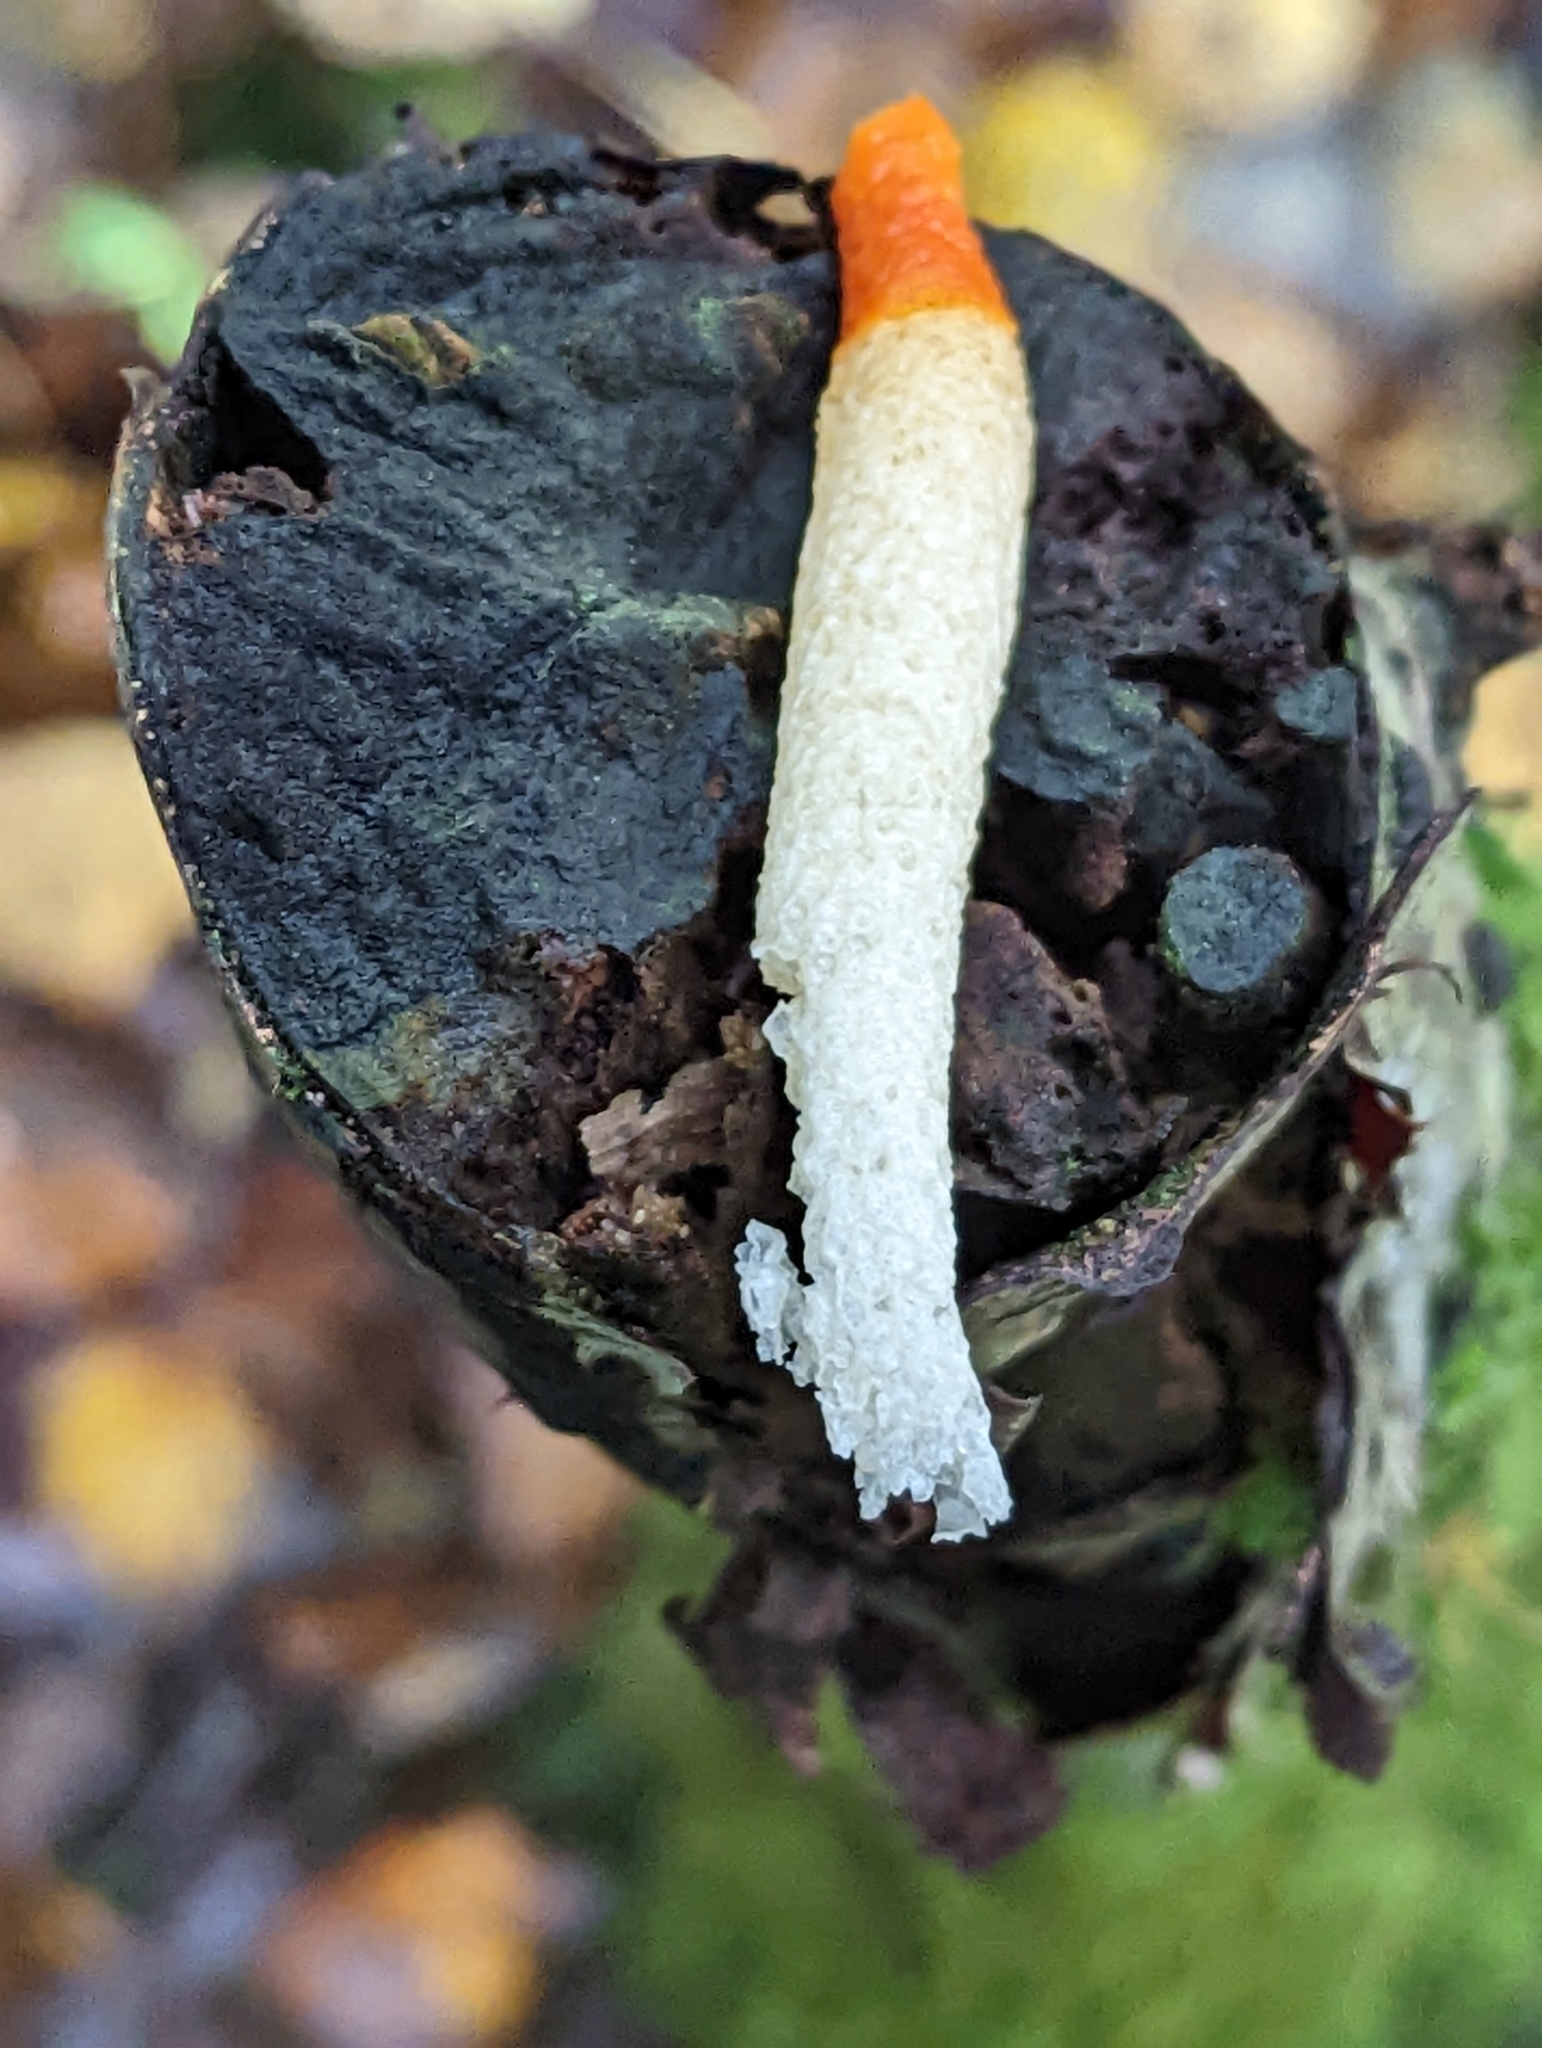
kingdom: Fungi
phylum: Basidiomycota
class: Agaricomycetes
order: Phallales
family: Phallaceae
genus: Mutinus
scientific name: Mutinus caninus
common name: Dog stinkhorn
